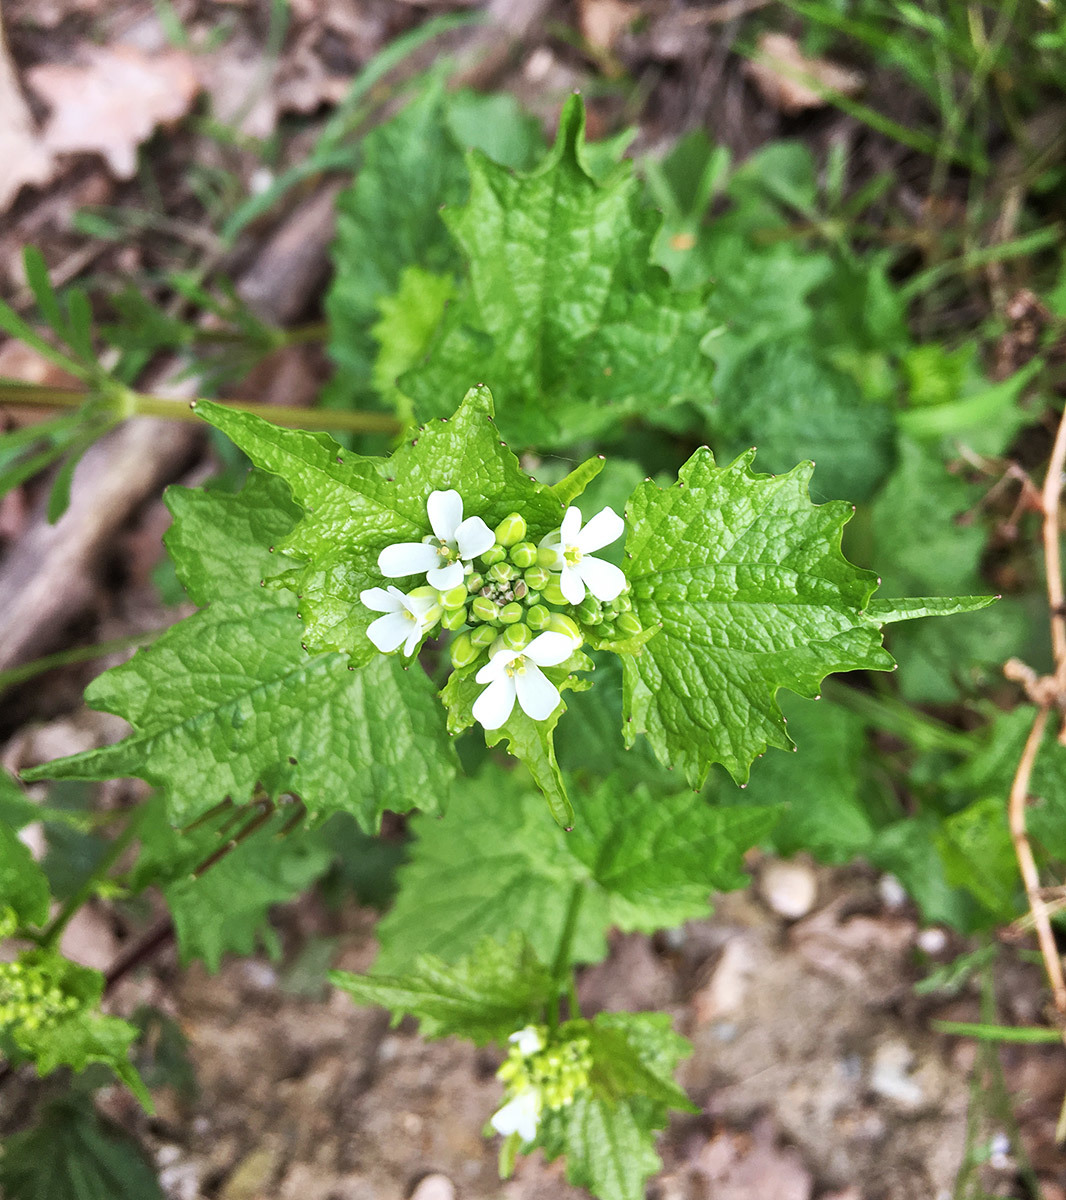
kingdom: Plantae
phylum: Tracheophyta
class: Magnoliopsida
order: Brassicales
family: Brassicaceae
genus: Alliaria
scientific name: Alliaria petiolata
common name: Garlic mustard
